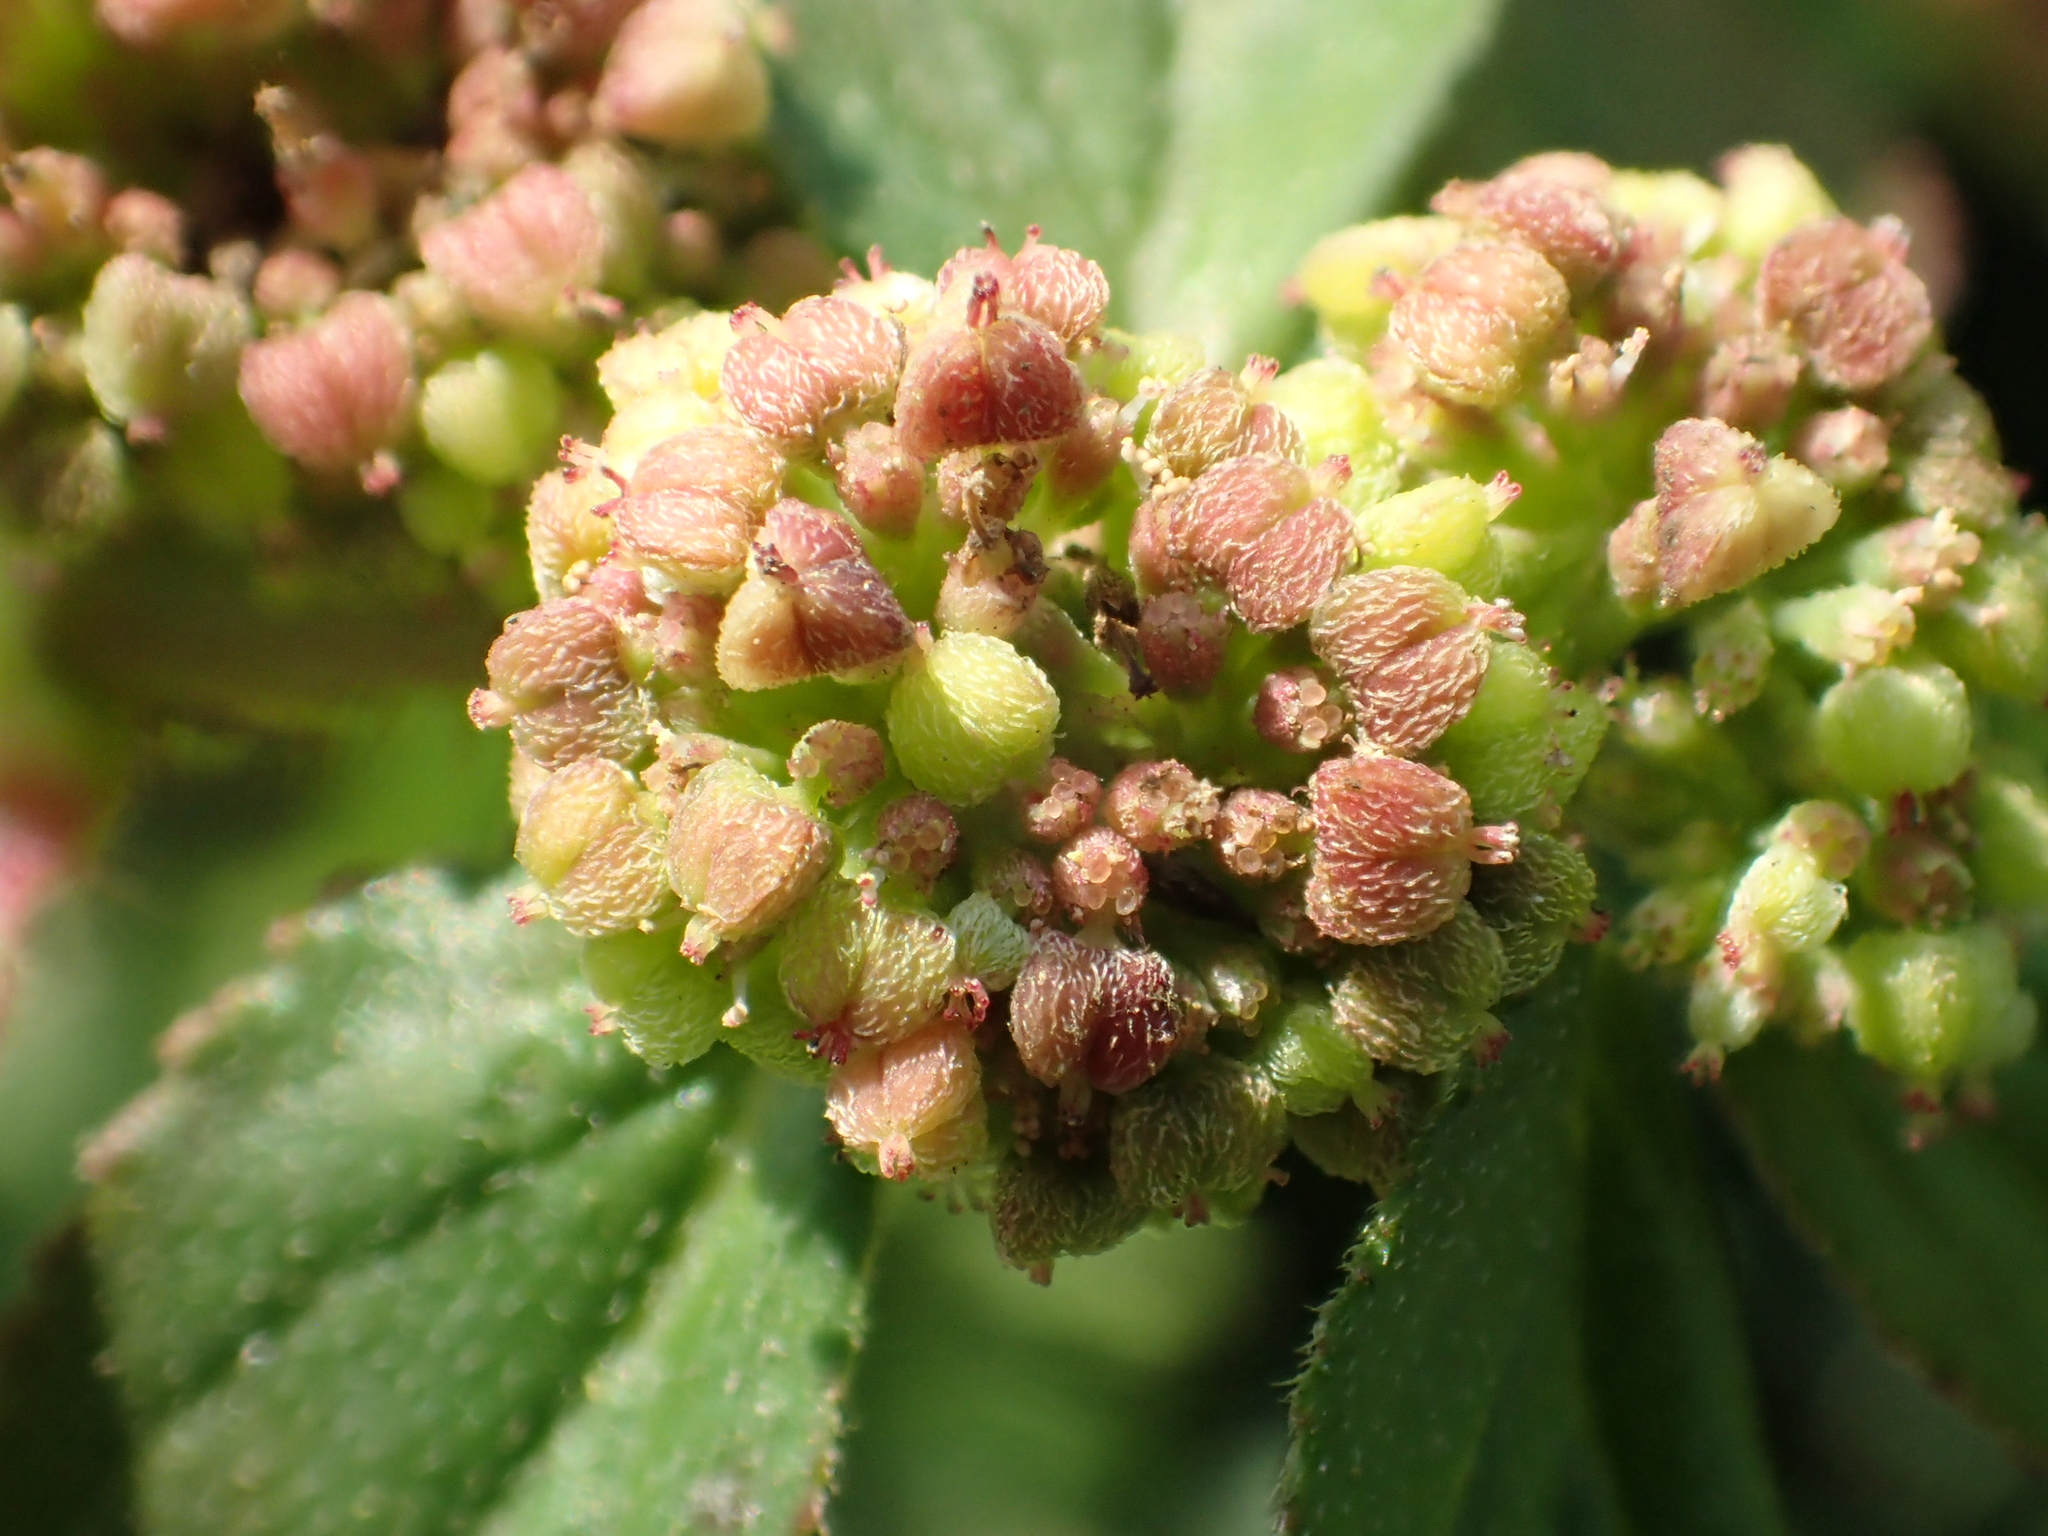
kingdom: Plantae
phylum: Tracheophyta
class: Magnoliopsida
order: Malpighiales
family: Euphorbiaceae
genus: Euphorbia
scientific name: Euphorbia hirta
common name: Pillpod sandmat
